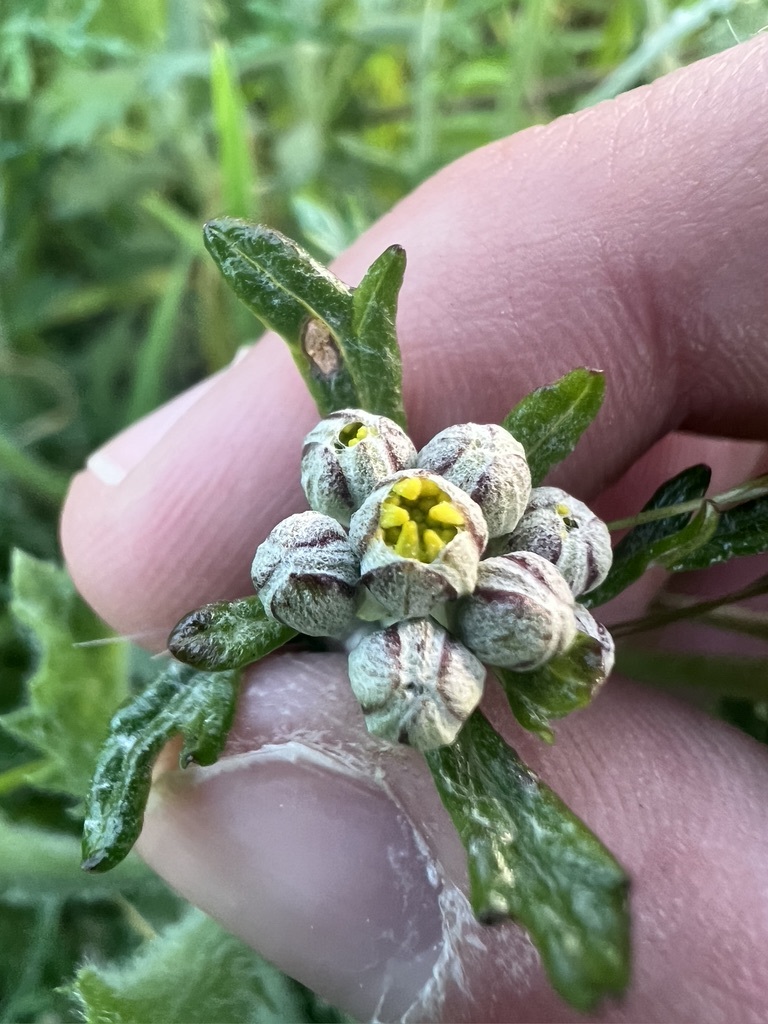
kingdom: Plantae
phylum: Tracheophyta
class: Magnoliopsida
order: Asterales
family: Asteraceae
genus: Eriophyllum
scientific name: Eriophyllum confertiflorum
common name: Golden-yarrow
